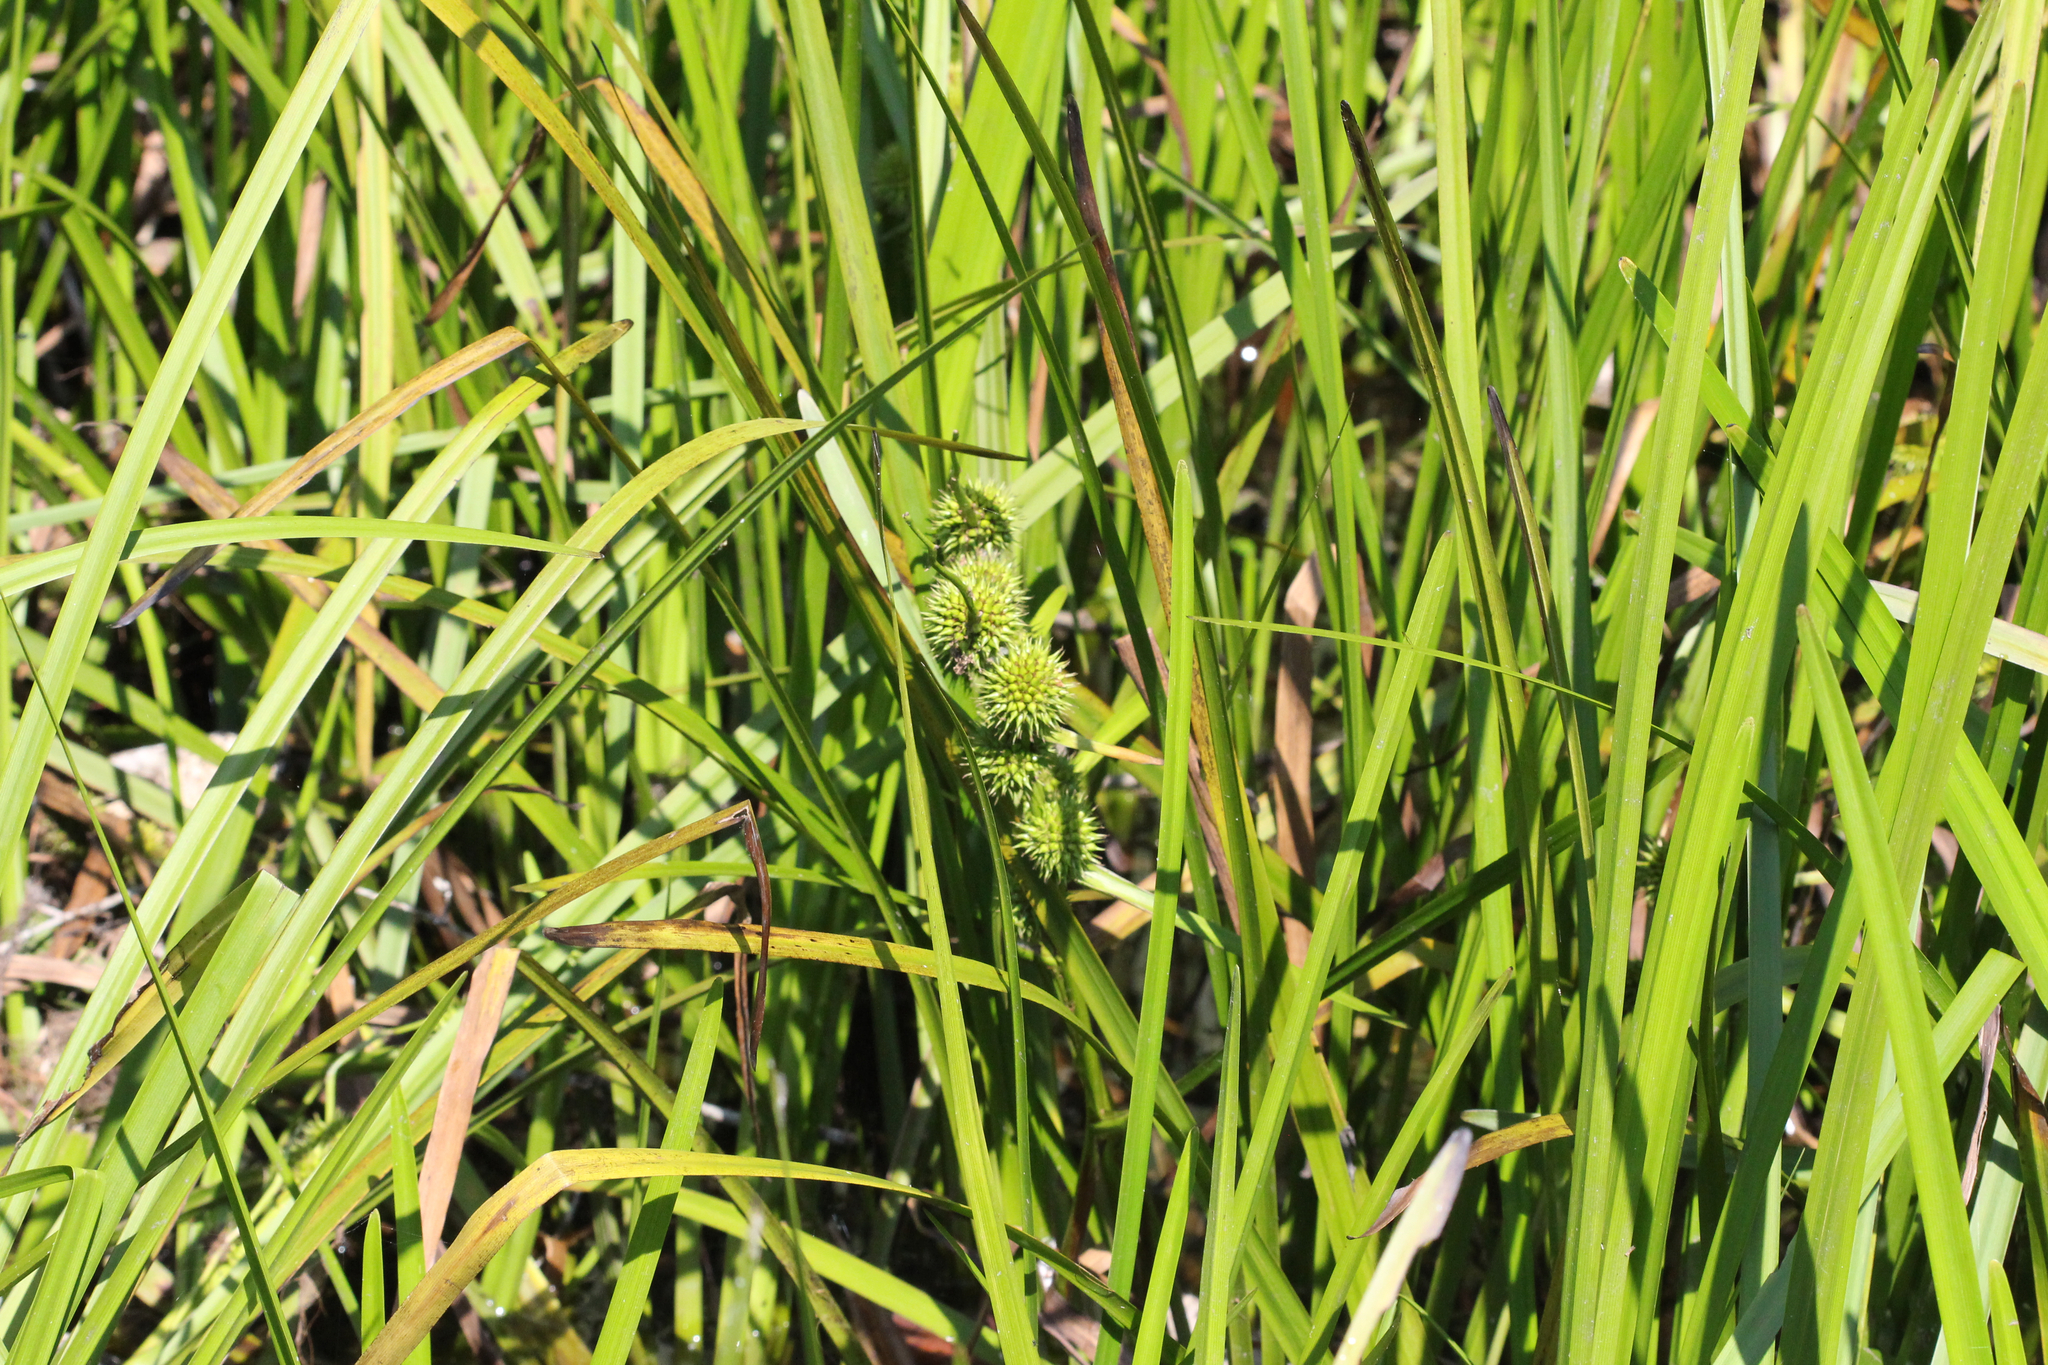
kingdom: Plantae
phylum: Tracheophyta
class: Liliopsida
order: Poales
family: Typhaceae
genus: Sparganium
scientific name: Sparganium americanum
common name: American burreed
